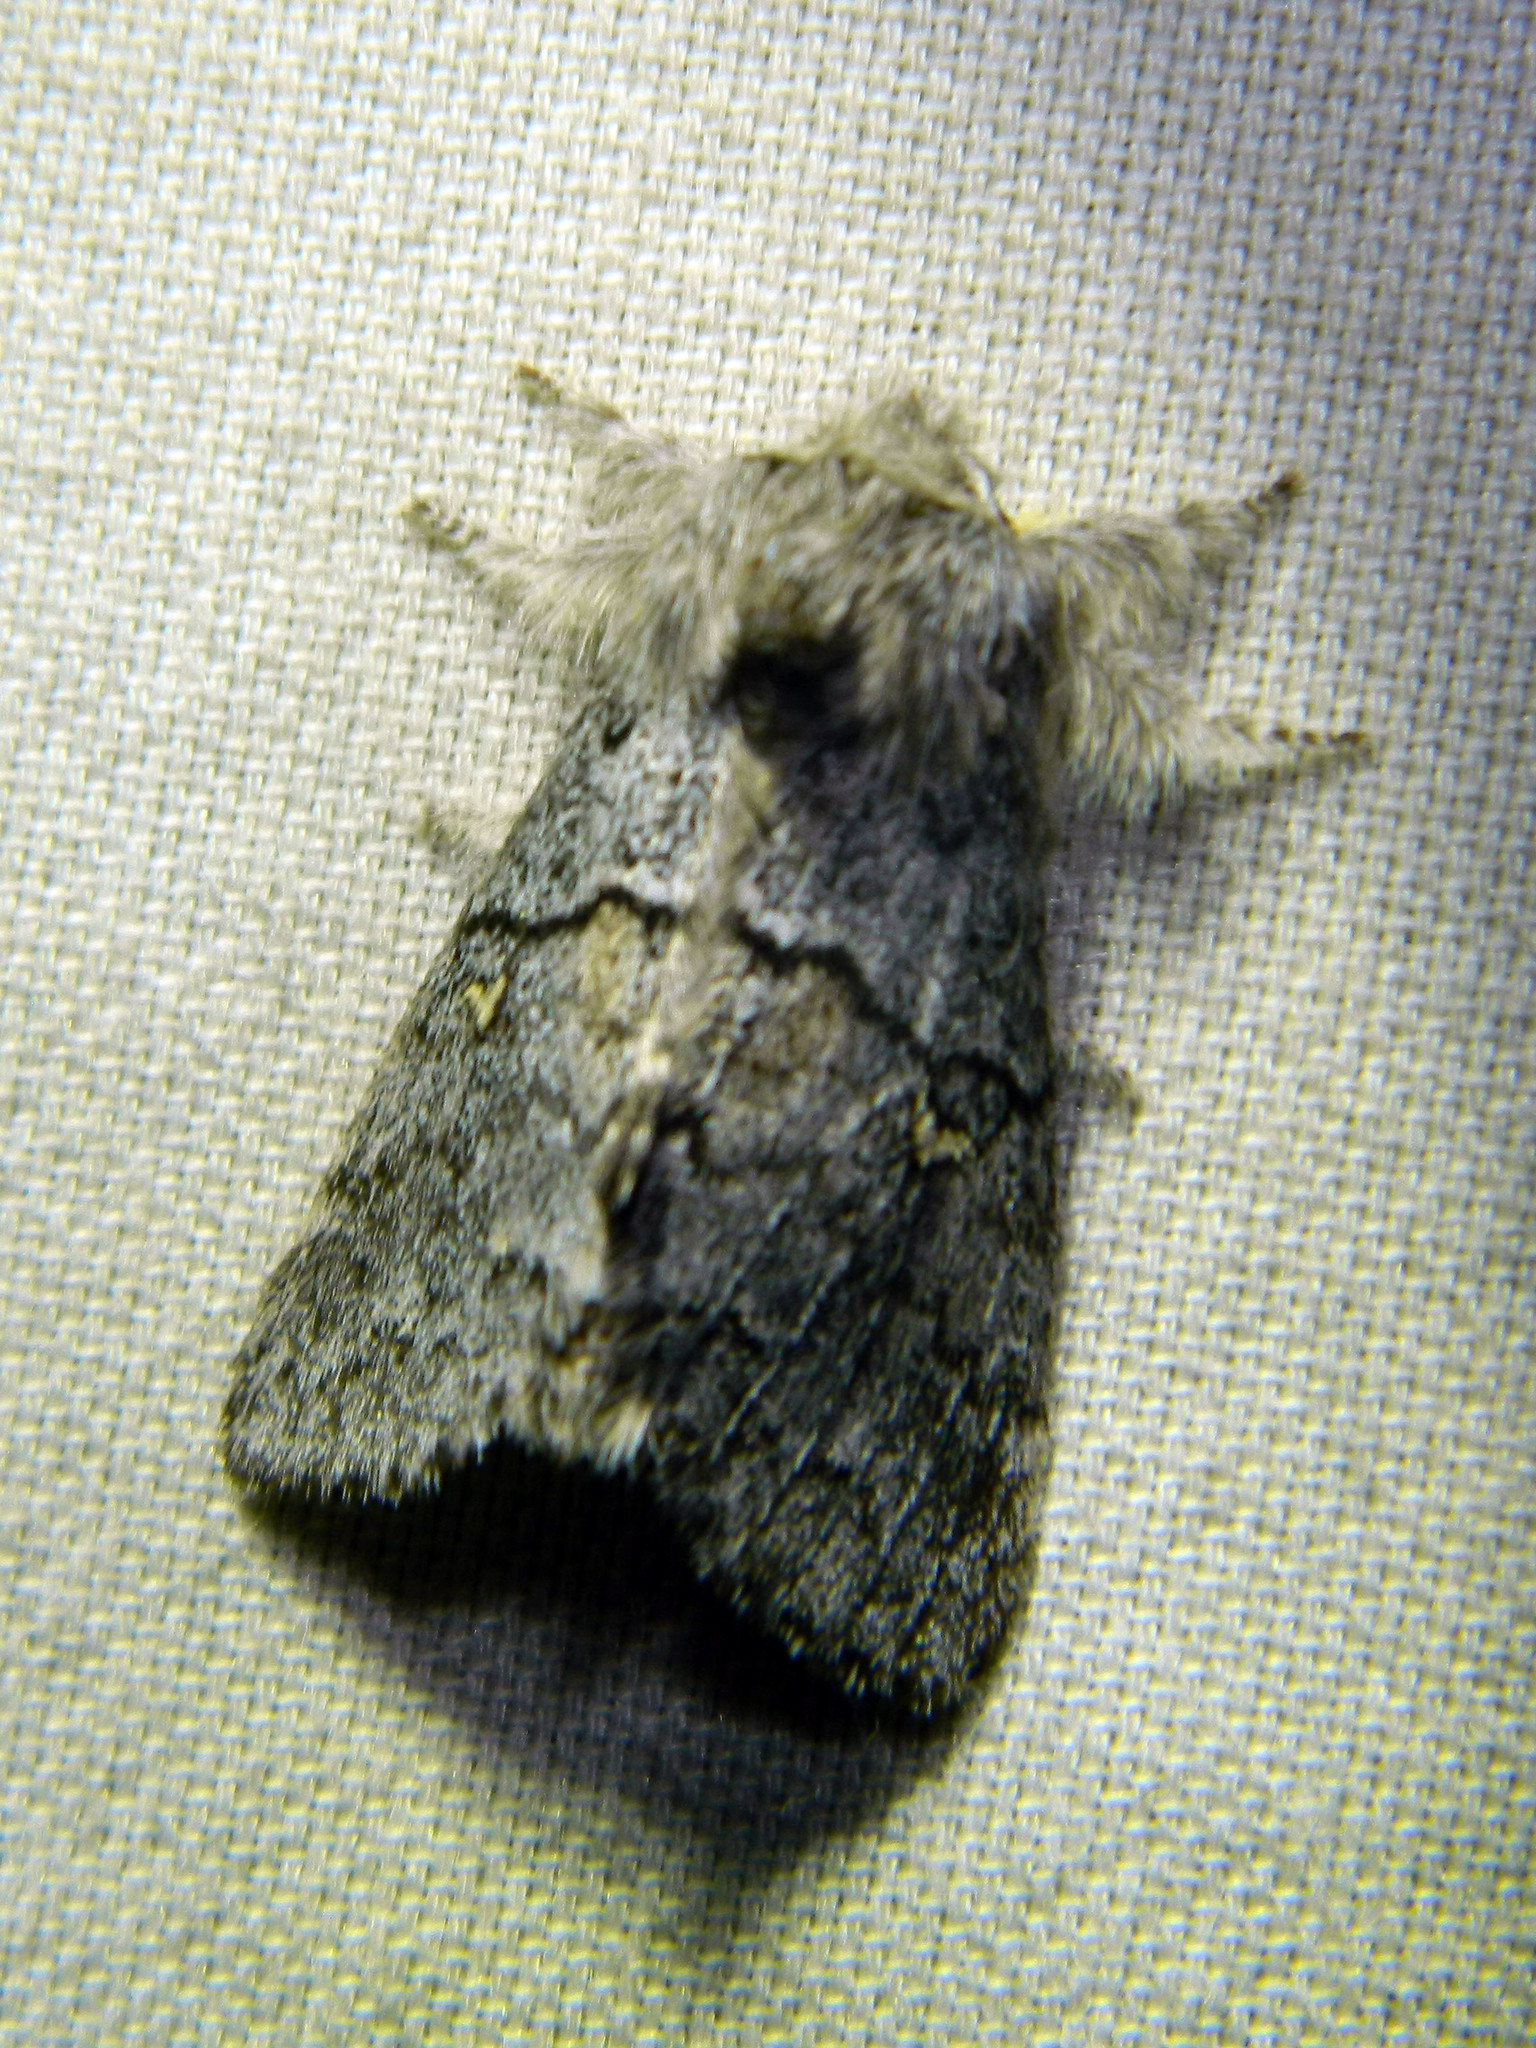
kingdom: Animalia
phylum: Arthropoda
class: Insecta
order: Lepidoptera
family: Notodontidae
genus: Gluphisia
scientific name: Gluphisia avimacula
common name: Four-spotted gluphisia moth
